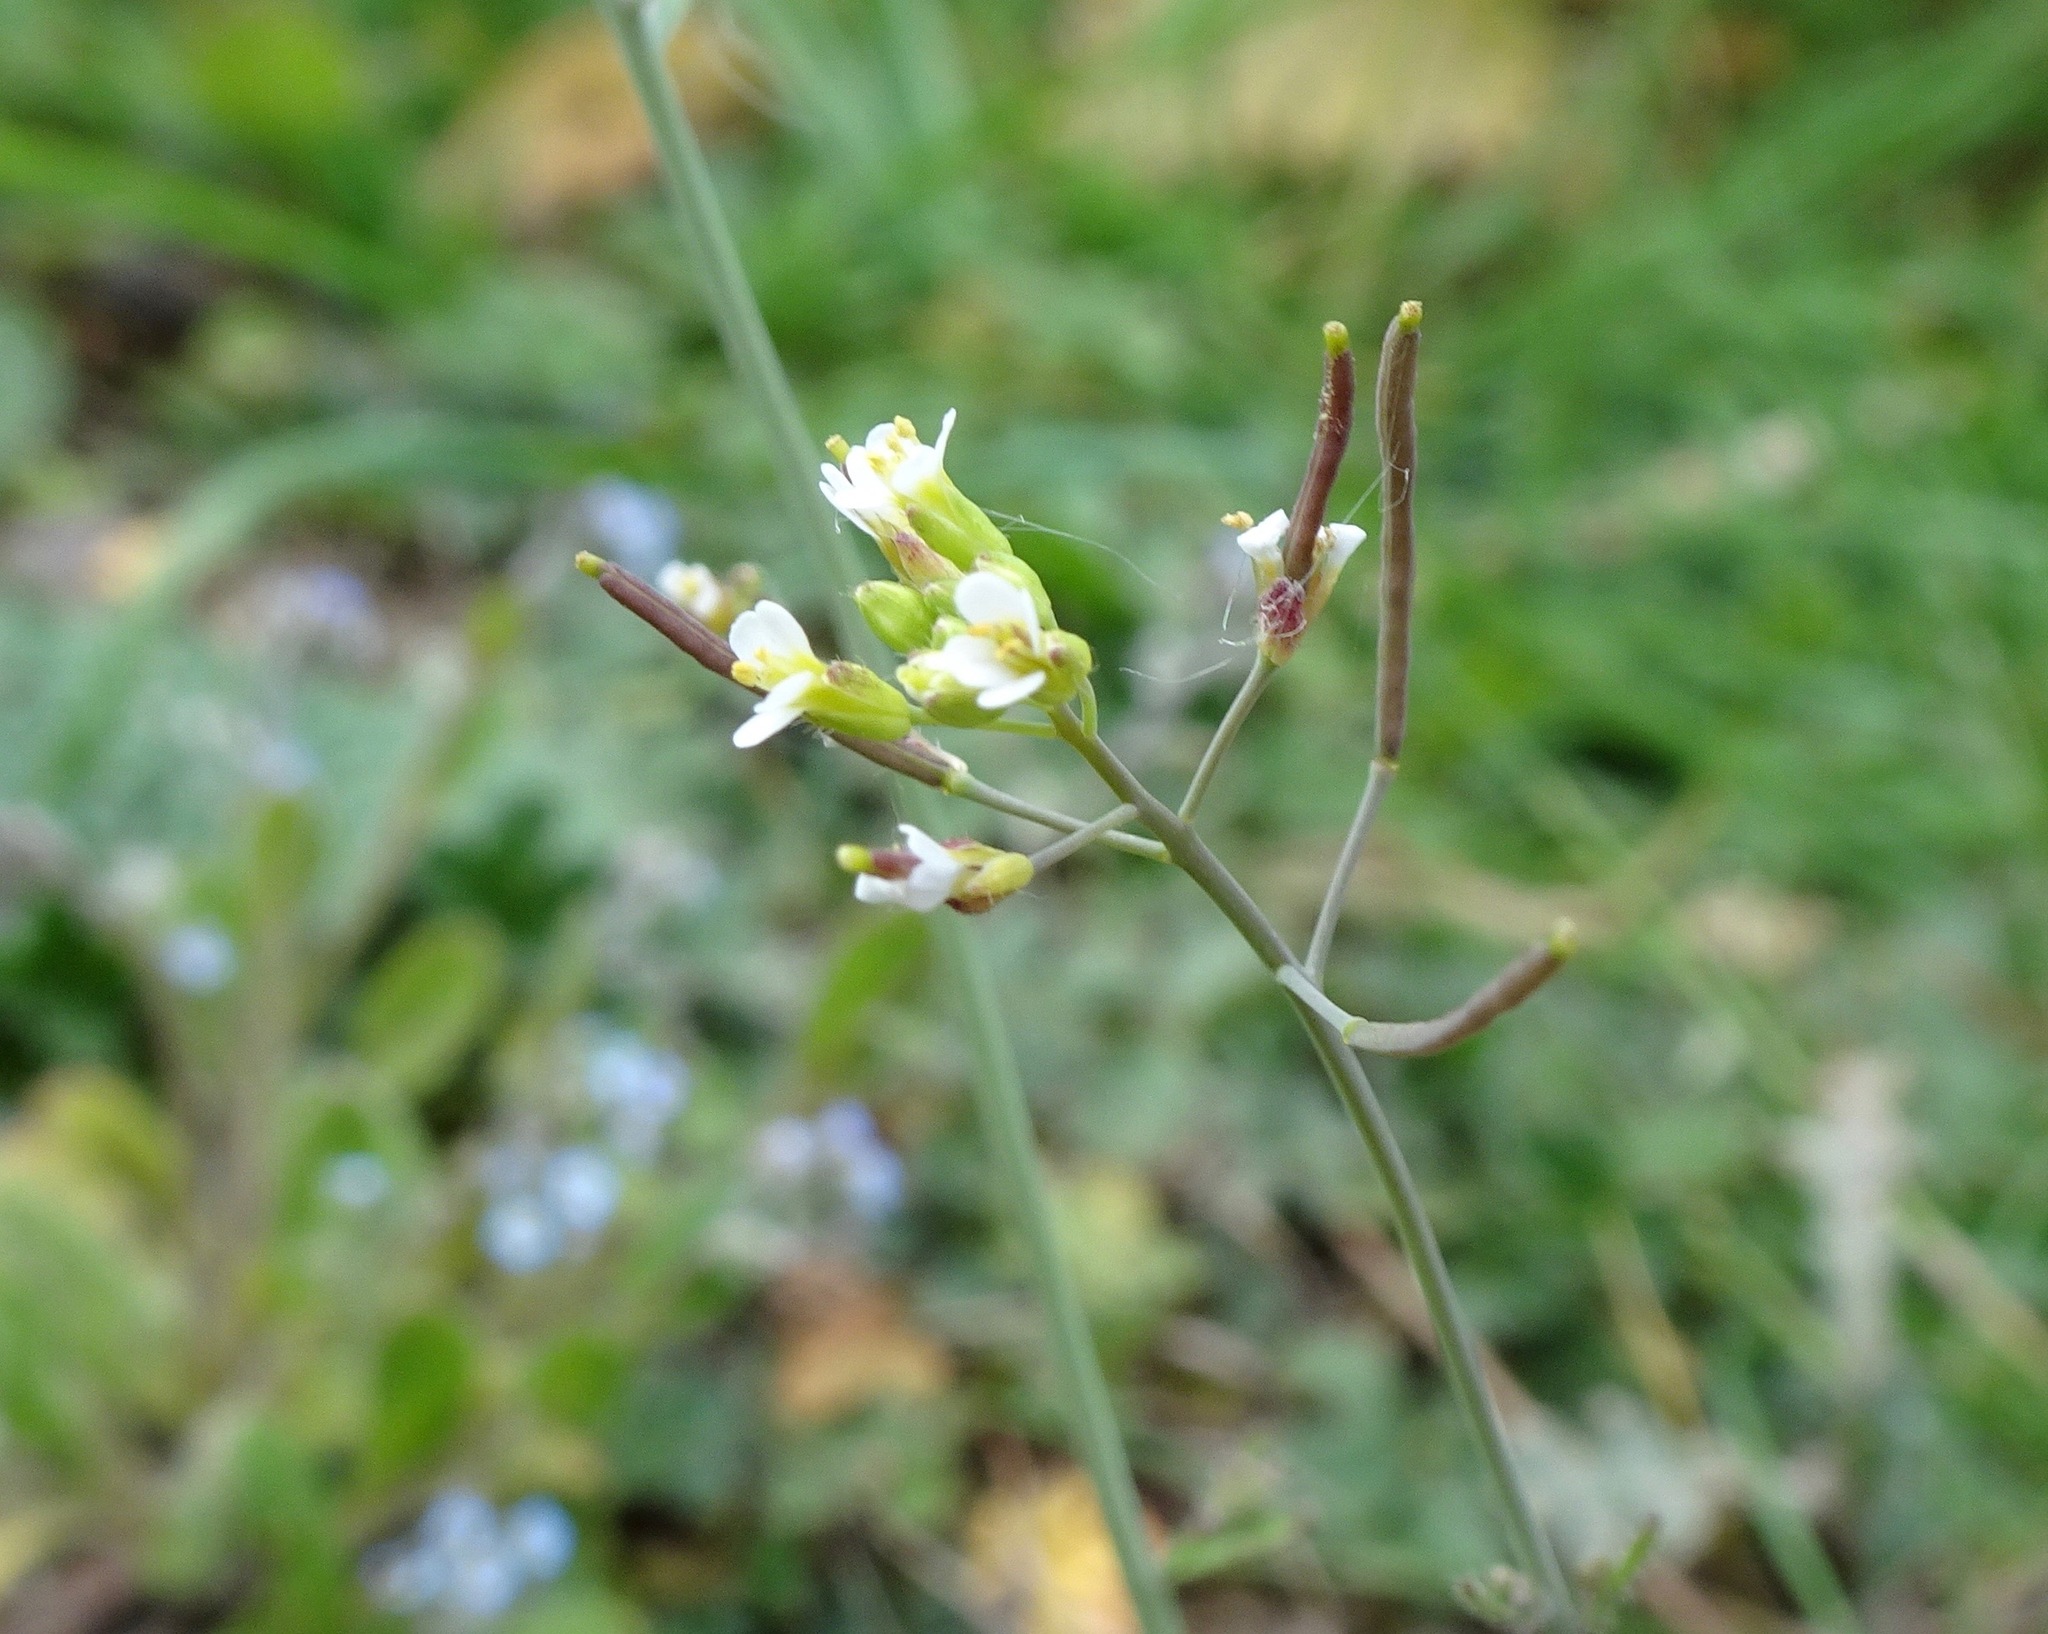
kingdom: Plantae
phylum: Tracheophyta
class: Magnoliopsida
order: Brassicales
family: Brassicaceae
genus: Arabidopsis
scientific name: Arabidopsis thaliana
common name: Thale cress
